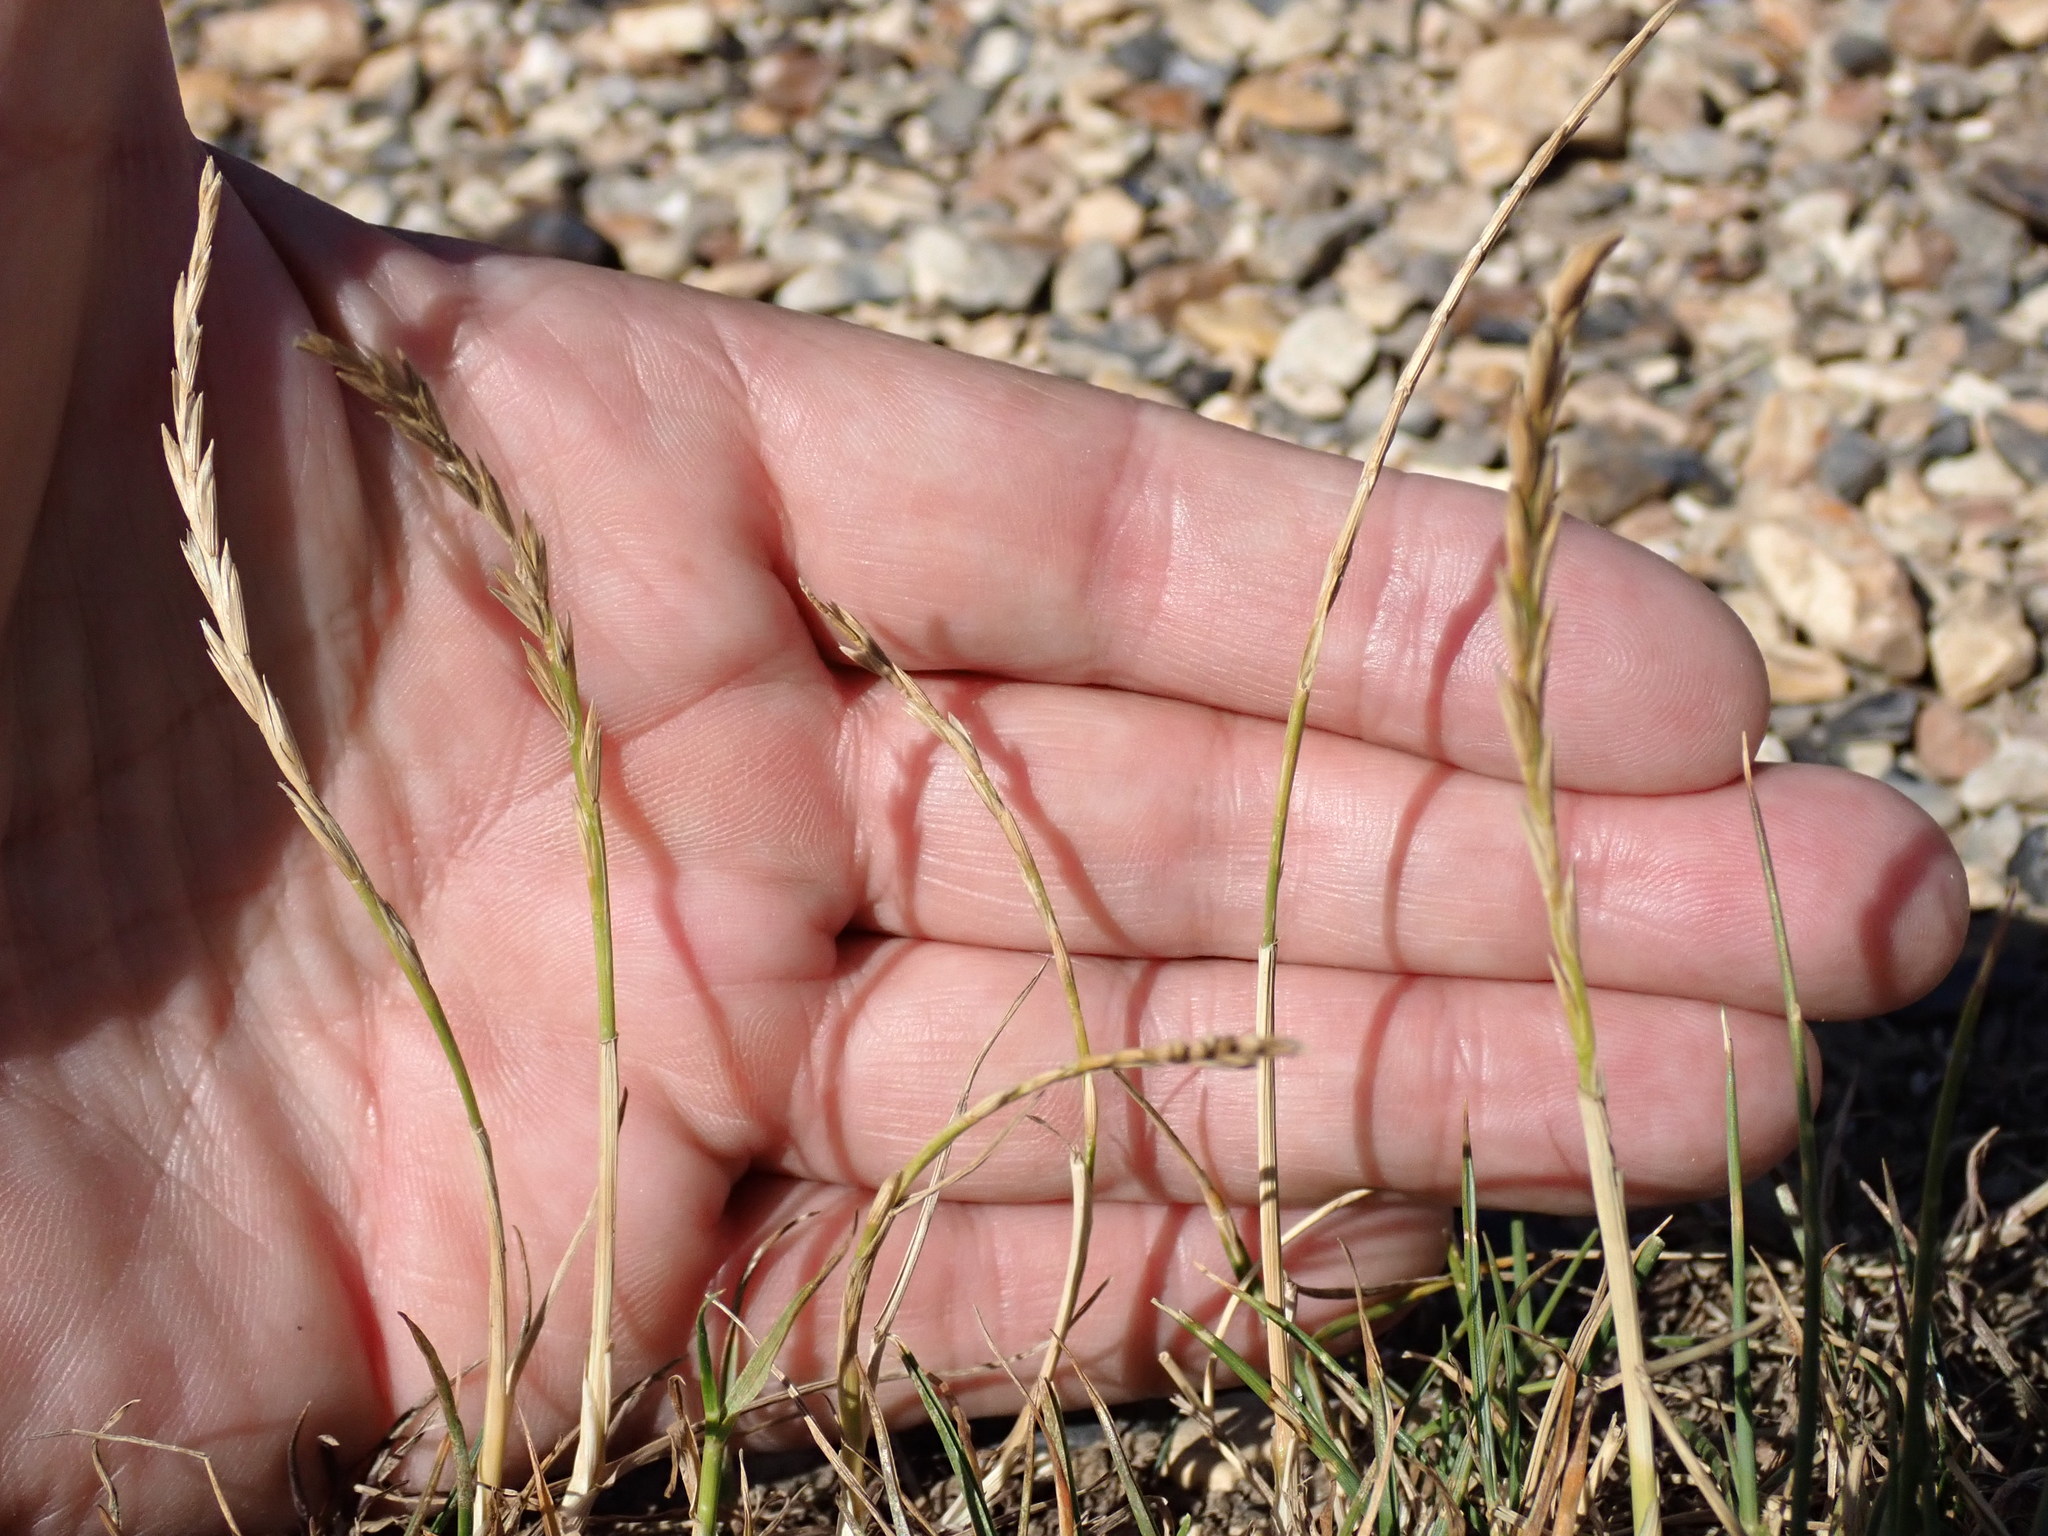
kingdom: Plantae
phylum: Tracheophyta
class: Liliopsida
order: Poales
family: Poaceae
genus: Lolium
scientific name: Lolium perenne
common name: Perennial ryegrass
